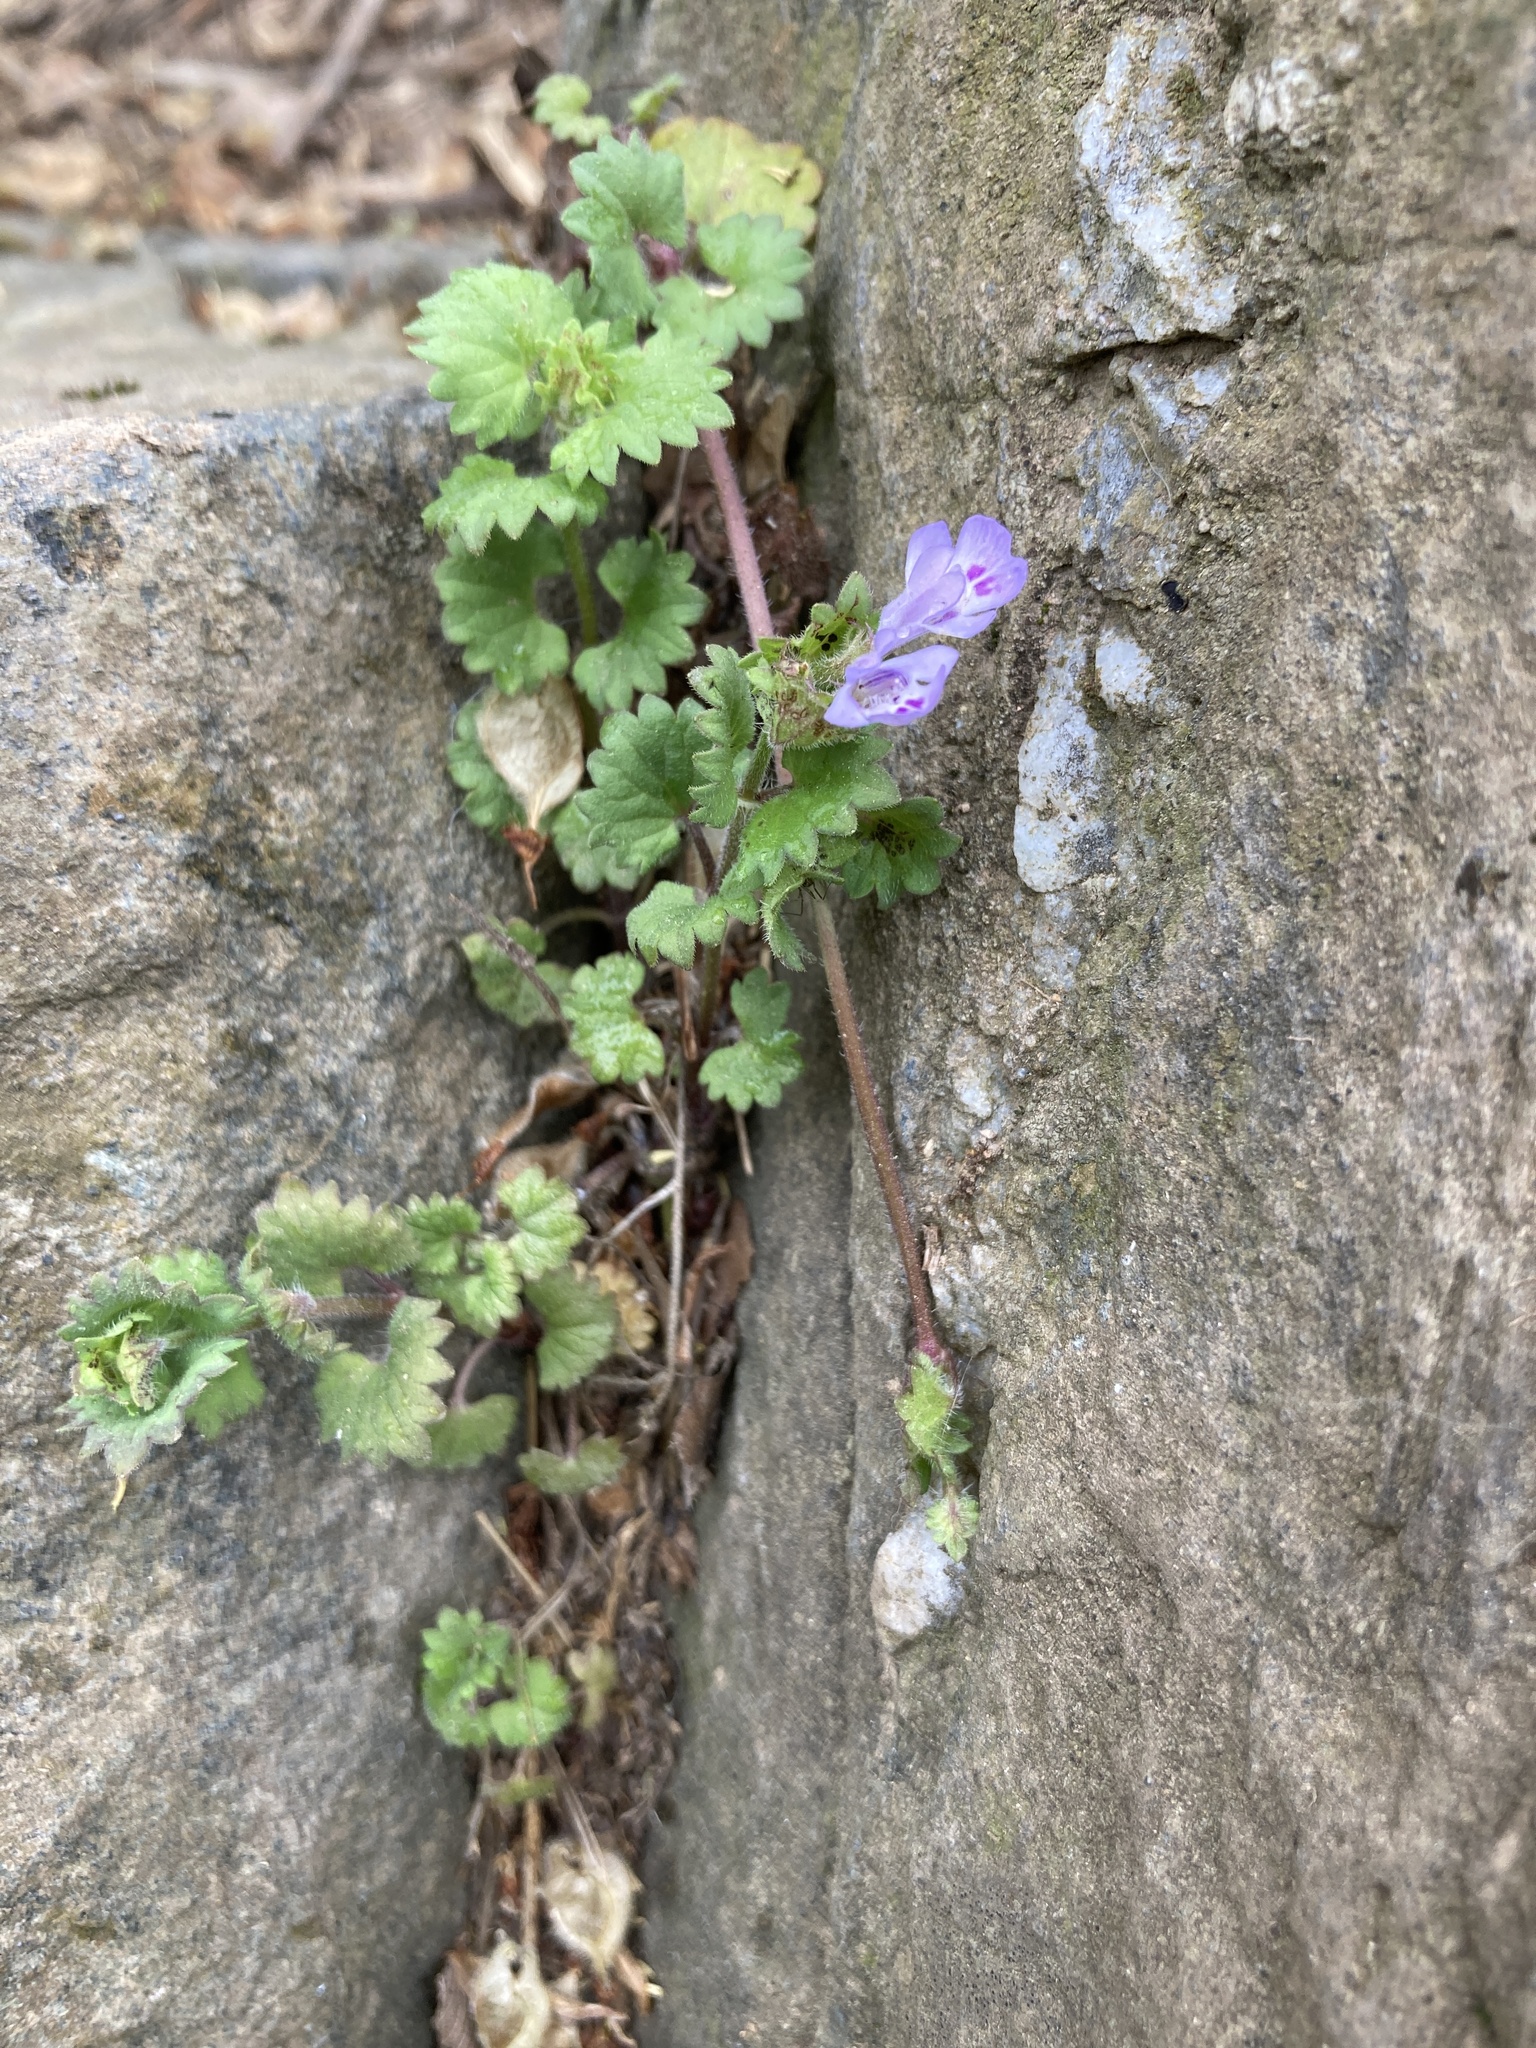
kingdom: Plantae
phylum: Tracheophyta
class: Magnoliopsida
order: Lamiales
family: Lamiaceae
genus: Glechoma
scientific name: Glechoma hederacea
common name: Ground ivy
